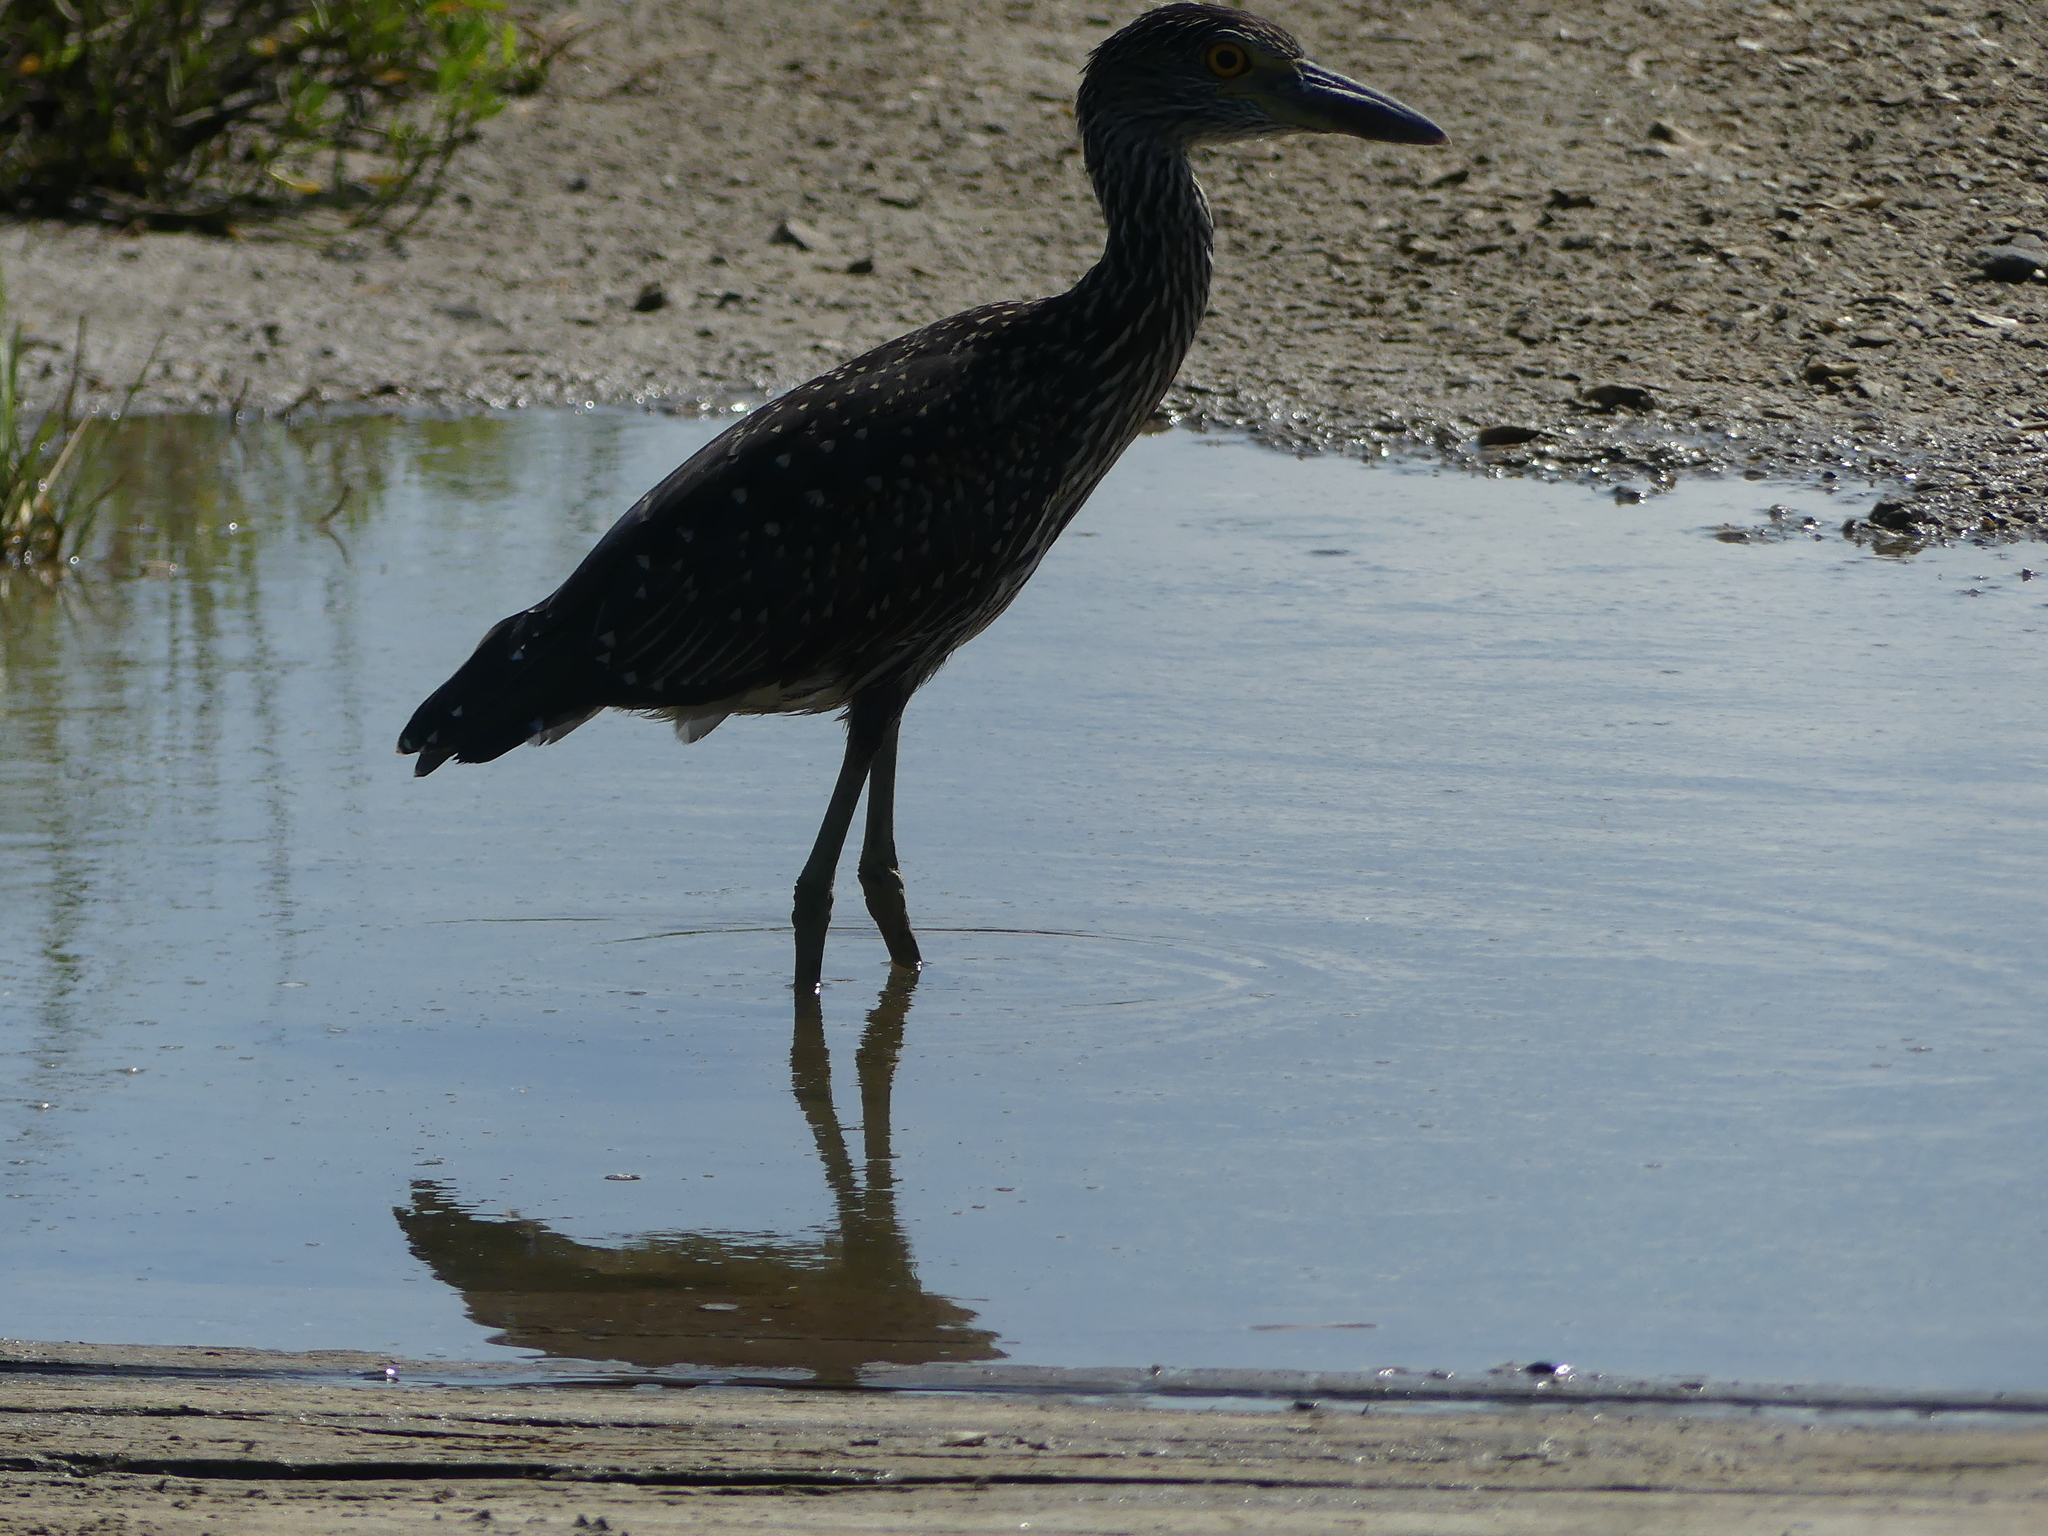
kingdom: Animalia
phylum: Chordata
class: Aves
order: Pelecaniformes
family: Ardeidae
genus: Nyctanassa
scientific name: Nyctanassa violacea
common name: Yellow-crowned night heron
